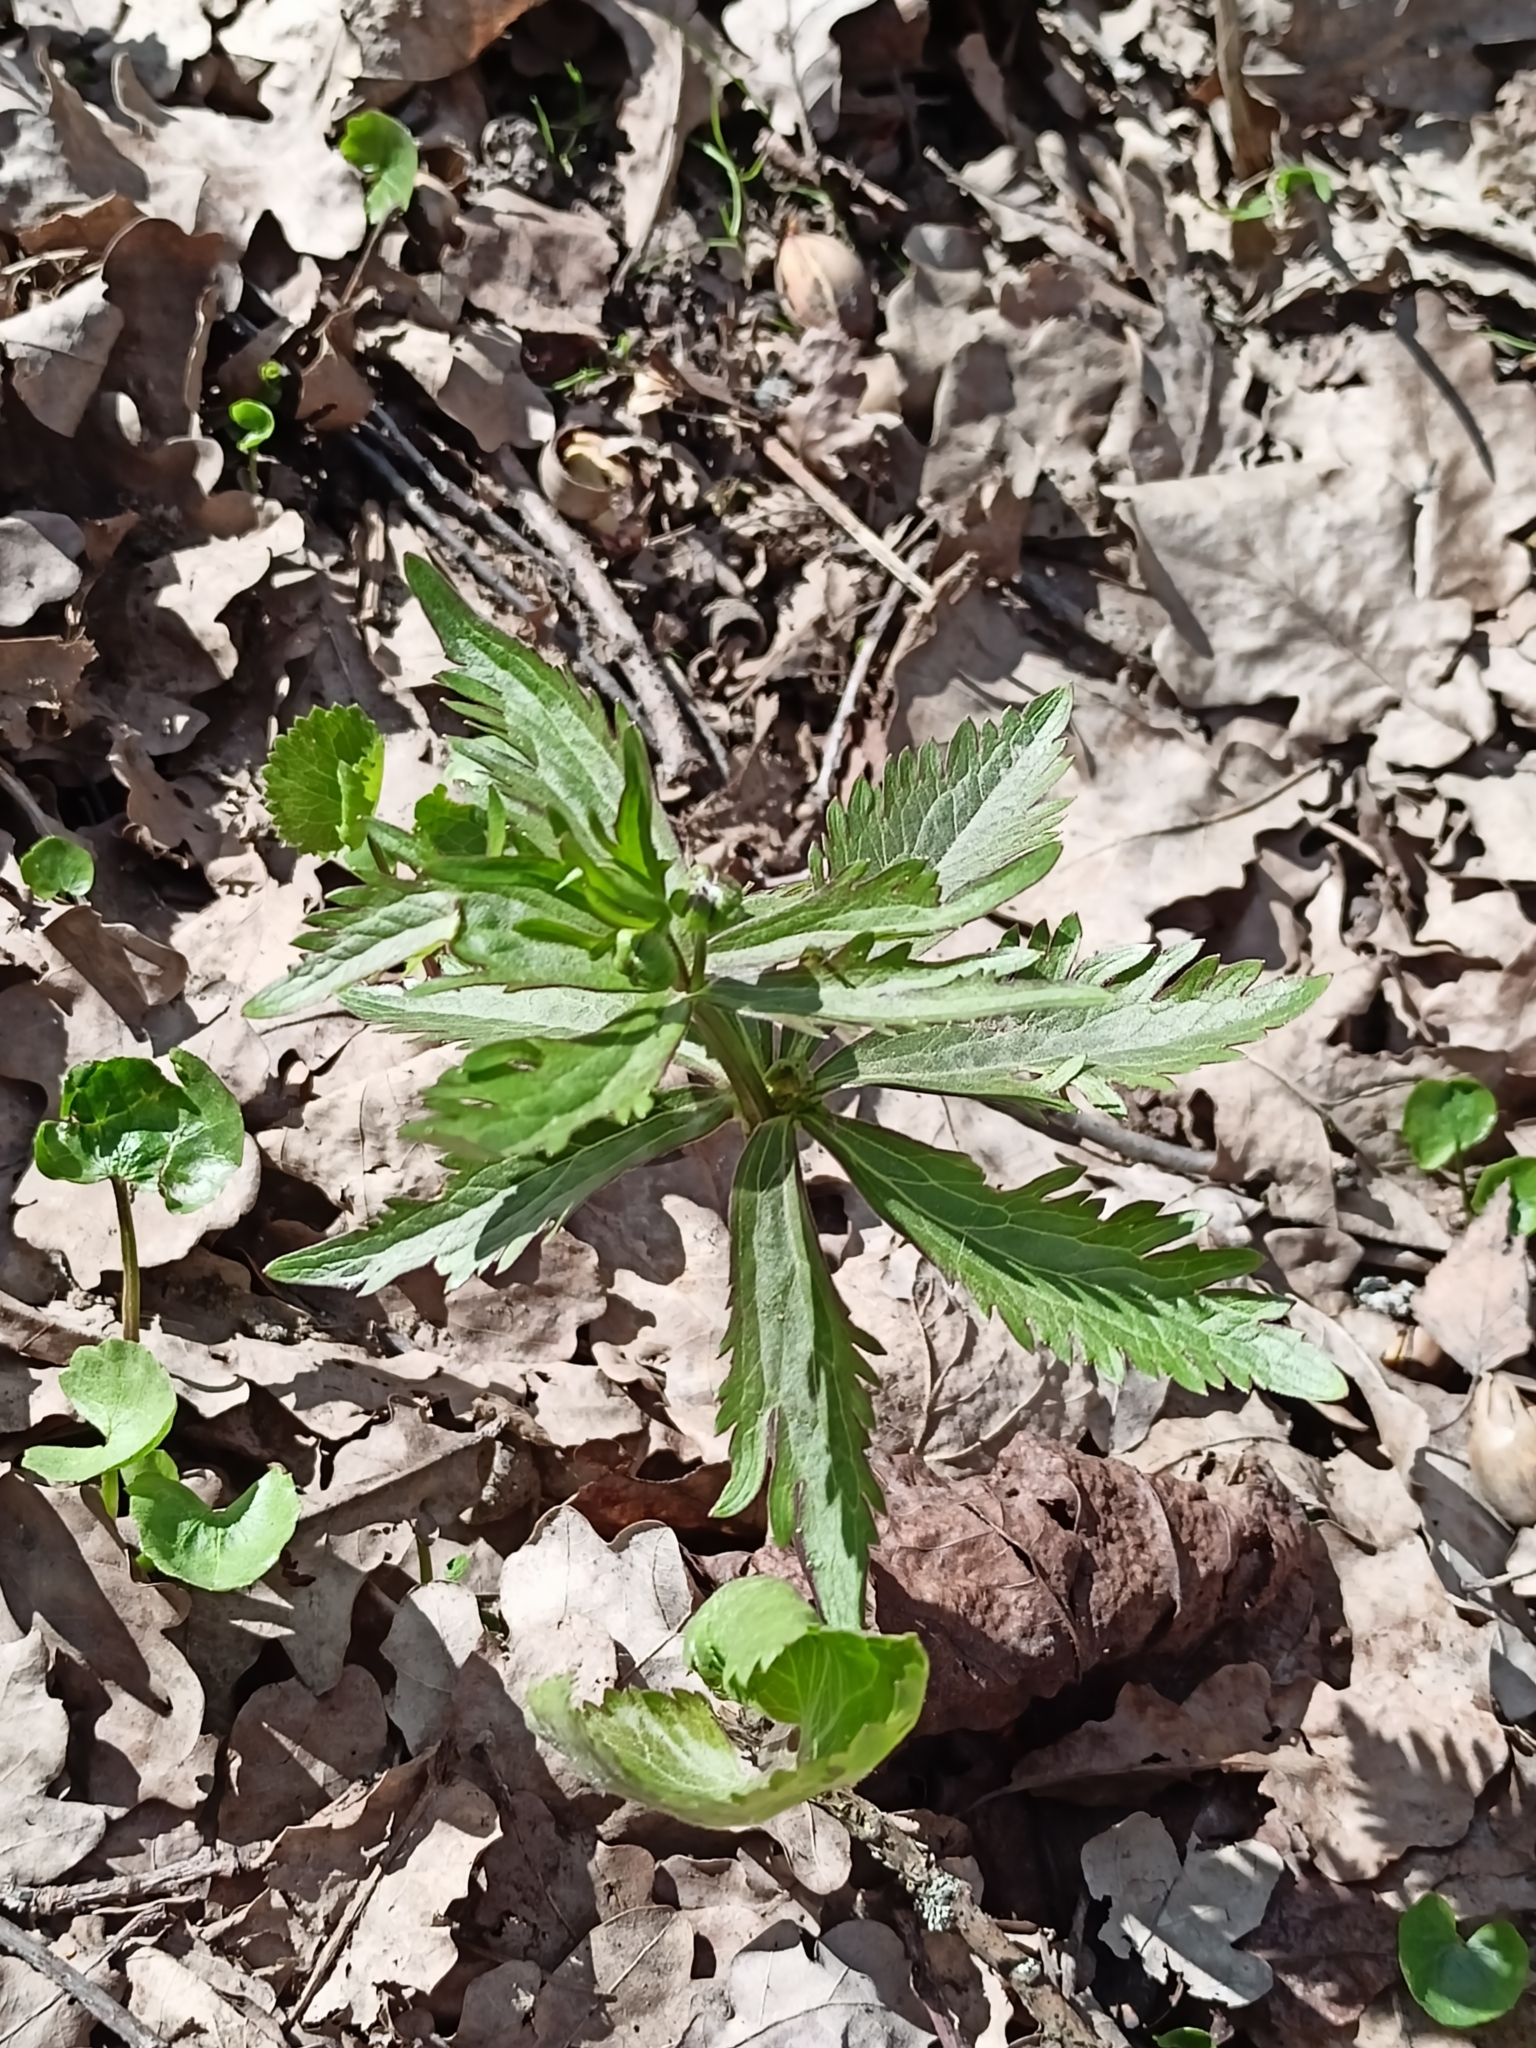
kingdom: Plantae
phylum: Tracheophyta
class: Magnoliopsida
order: Ranunculales
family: Ranunculaceae
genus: Ranunculus
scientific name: Ranunculus cassubicus
